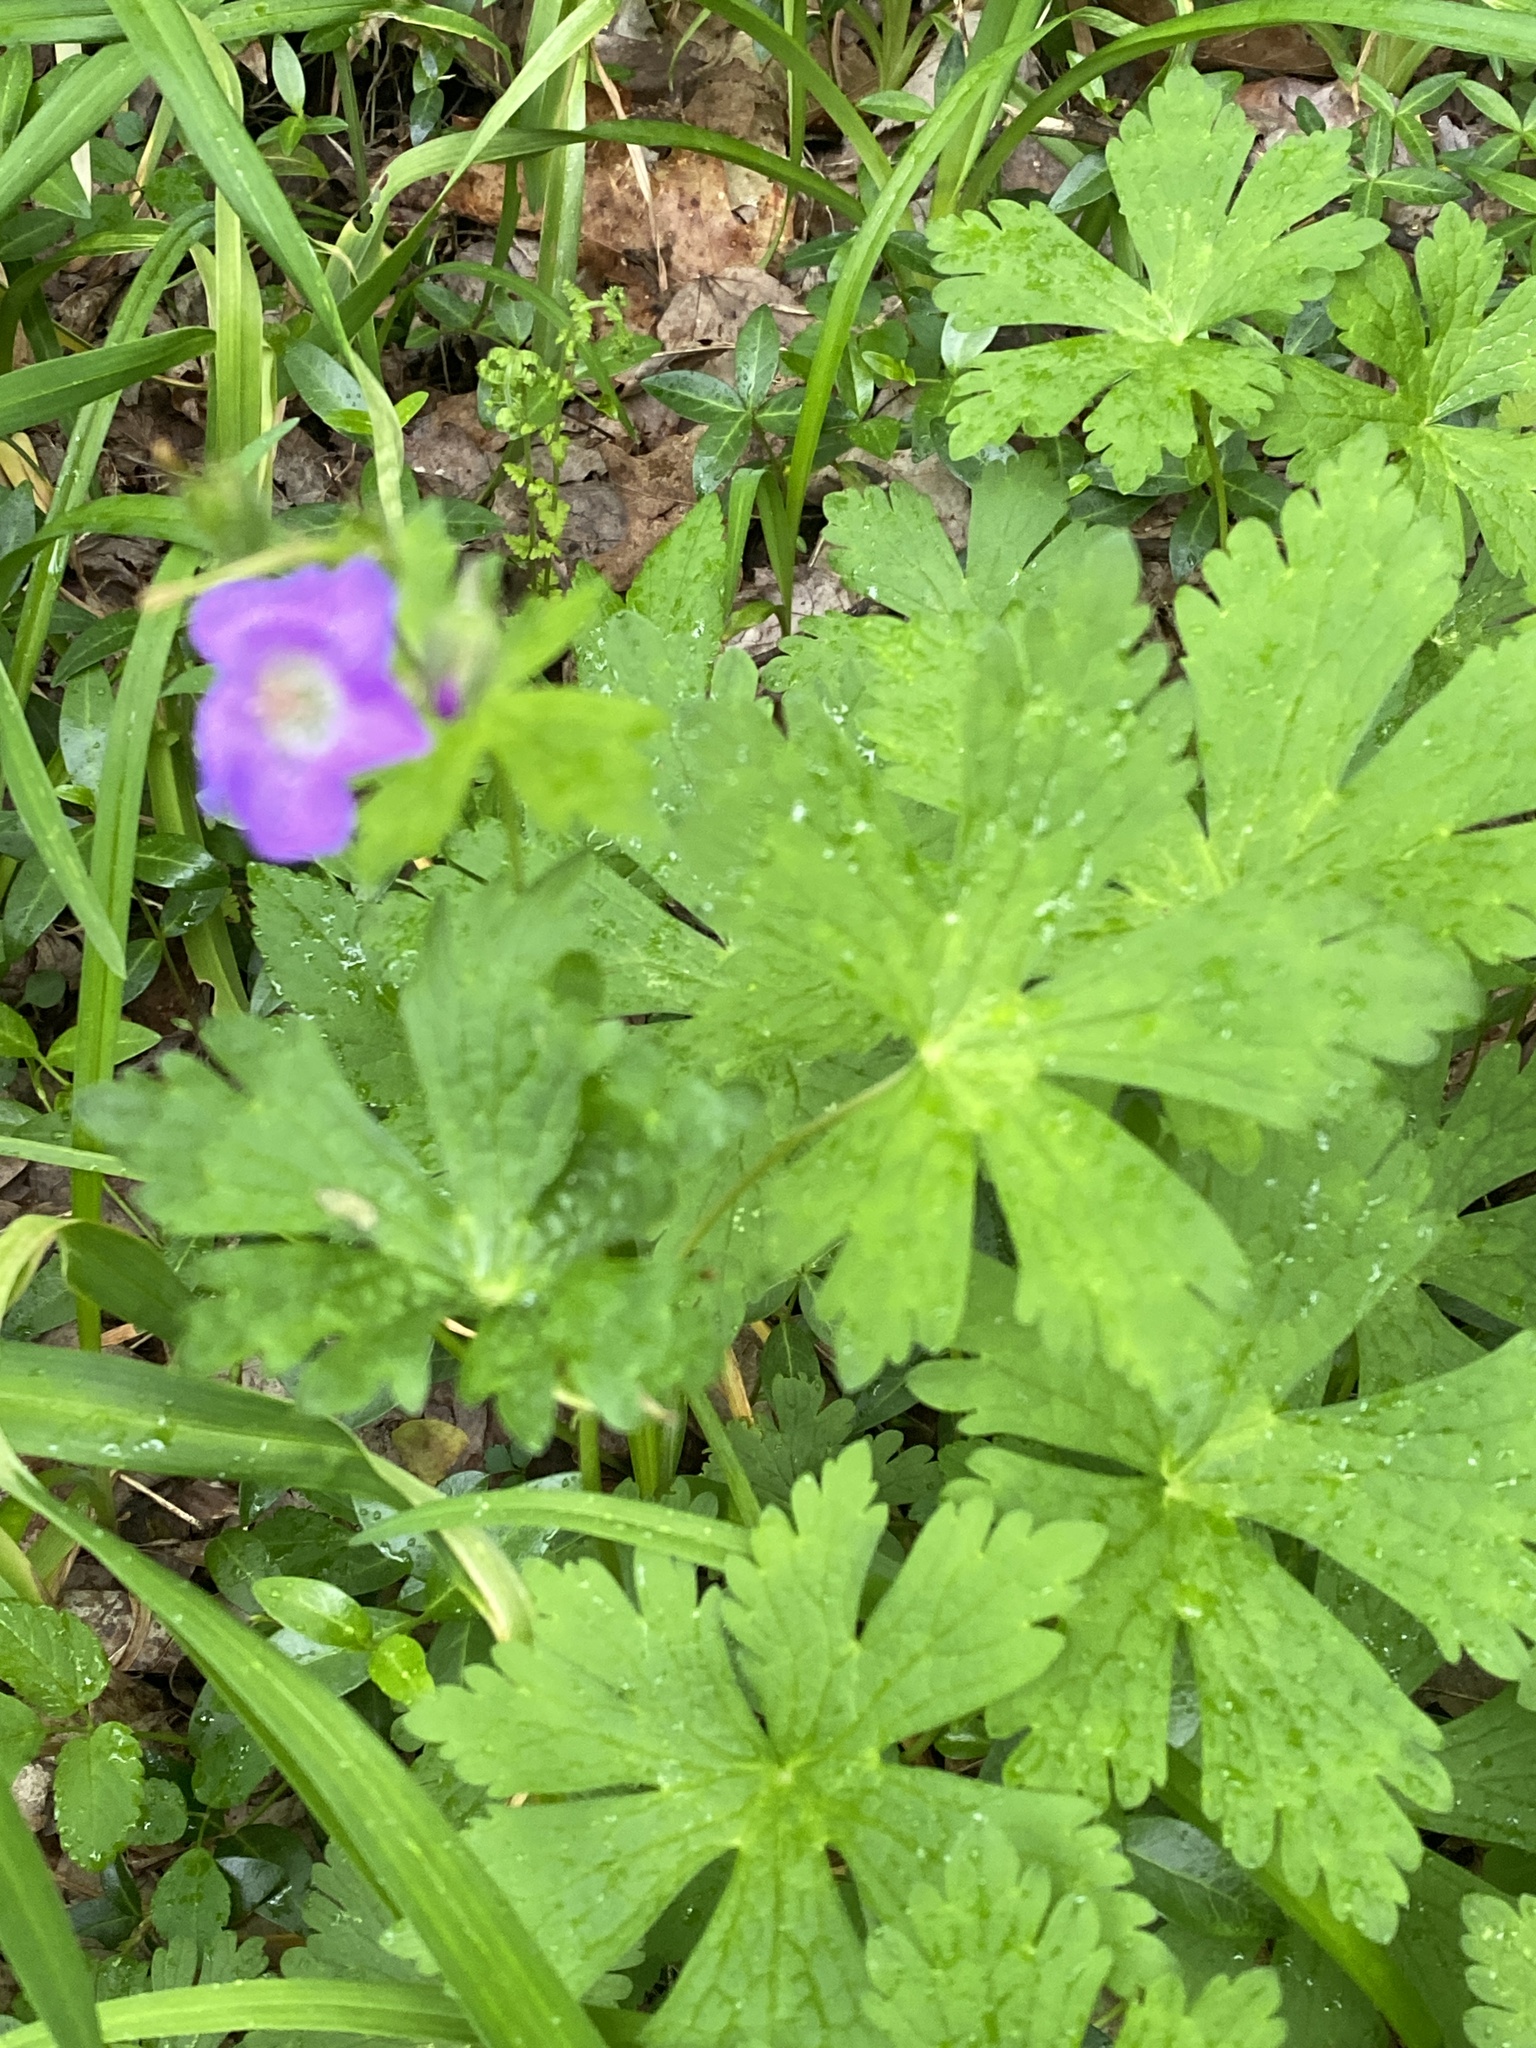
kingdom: Plantae
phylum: Tracheophyta
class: Magnoliopsida
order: Geraniales
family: Geraniaceae
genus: Geranium
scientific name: Geranium maculatum
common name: Spotted geranium
